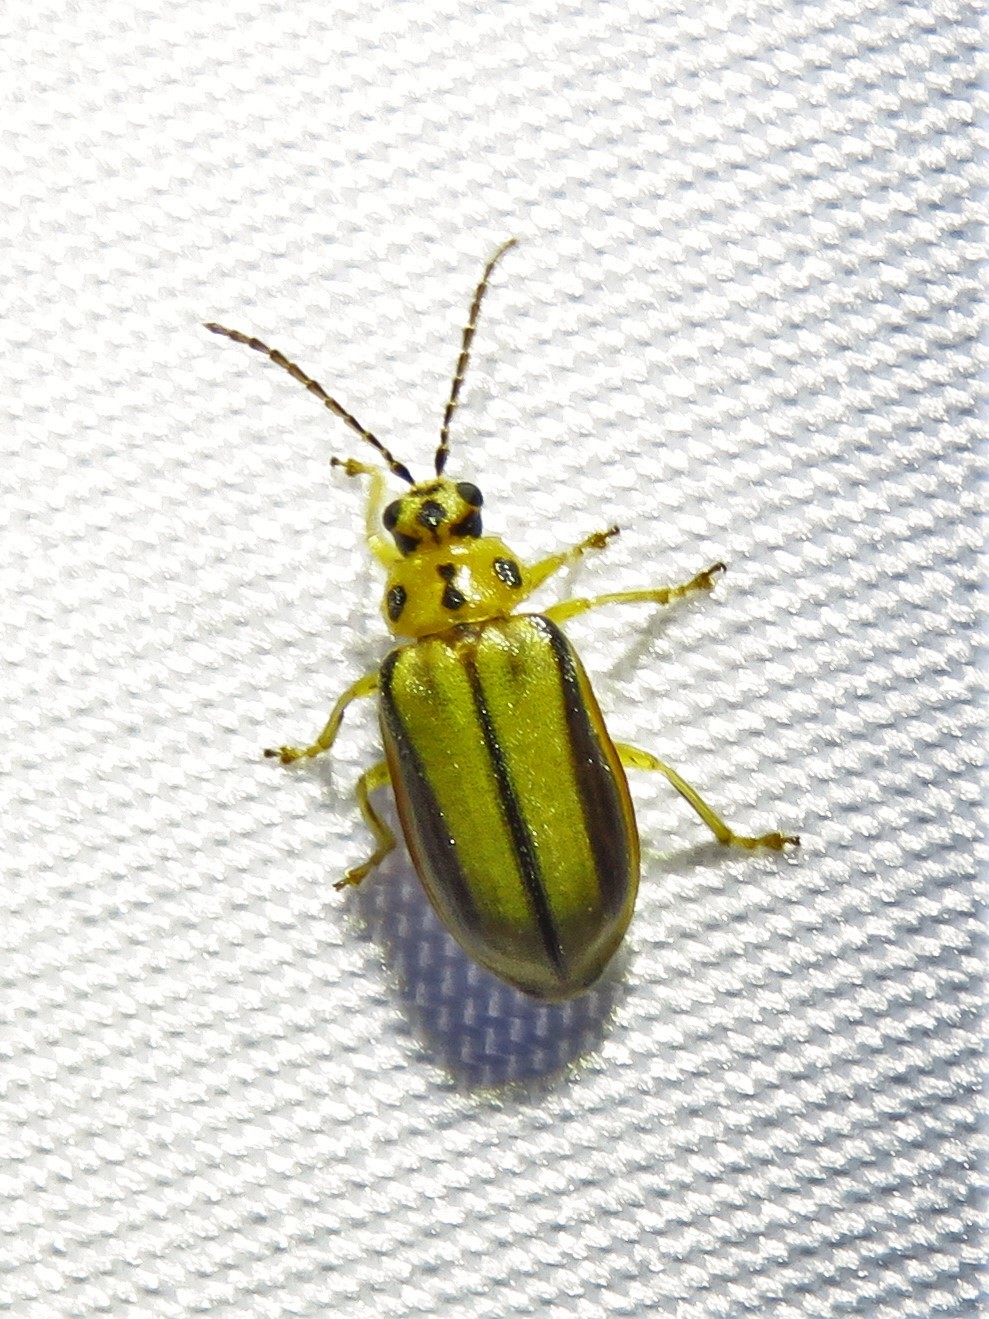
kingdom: Animalia
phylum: Arthropoda
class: Insecta
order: Coleoptera
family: Chrysomelidae
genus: Xanthogaleruca
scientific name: Xanthogaleruca luteola
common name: Elm leaf beetle
